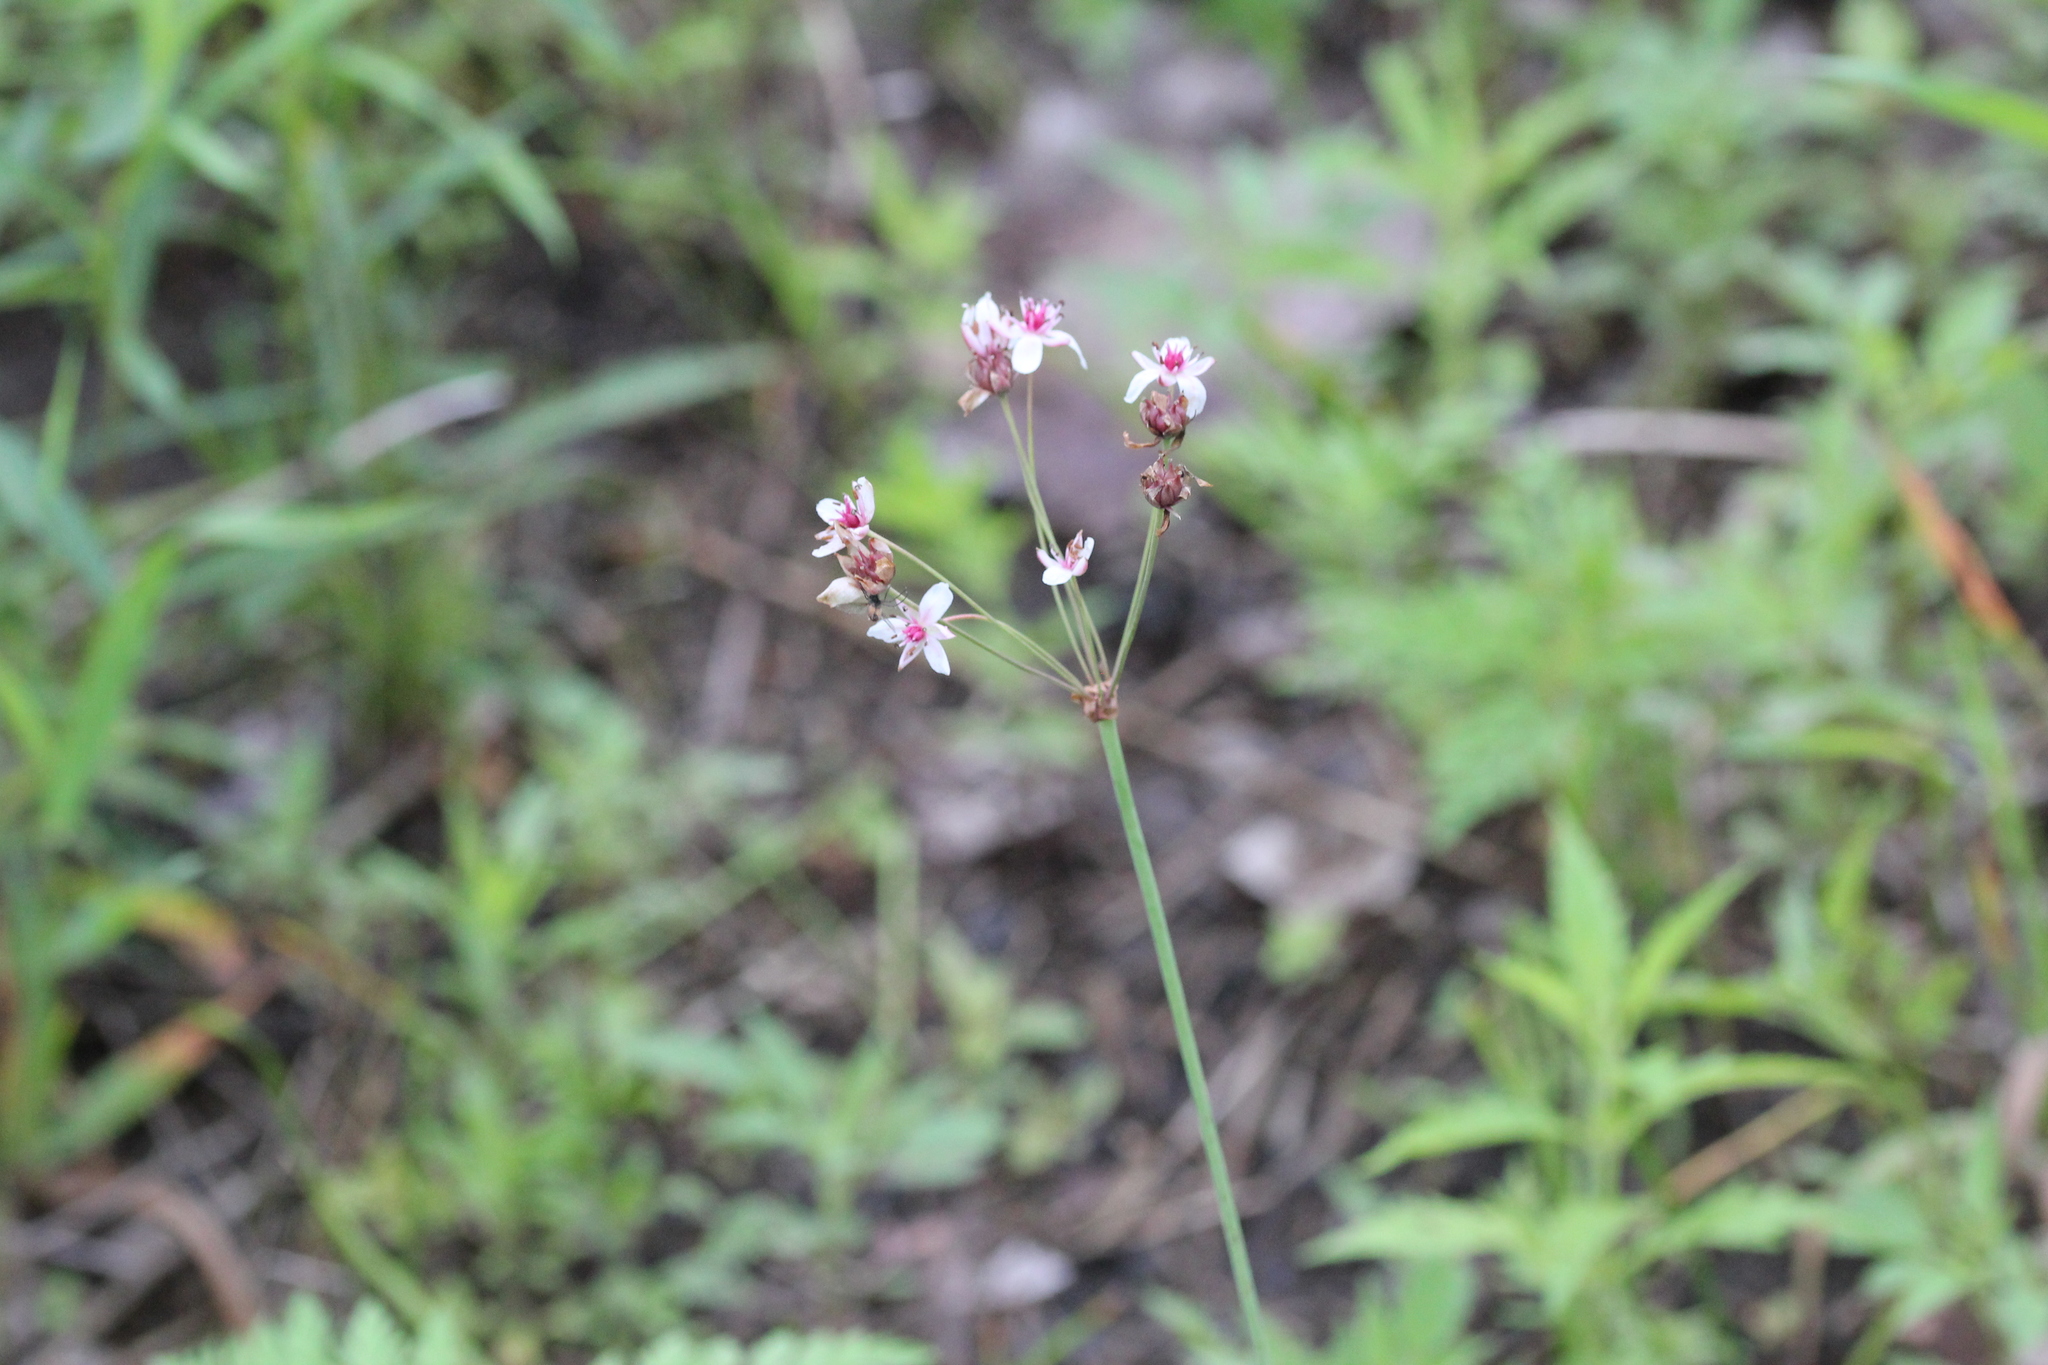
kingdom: Plantae
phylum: Tracheophyta
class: Liliopsida
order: Alismatales
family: Butomaceae
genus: Butomus
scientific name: Butomus umbellatus
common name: Flowering-rush
